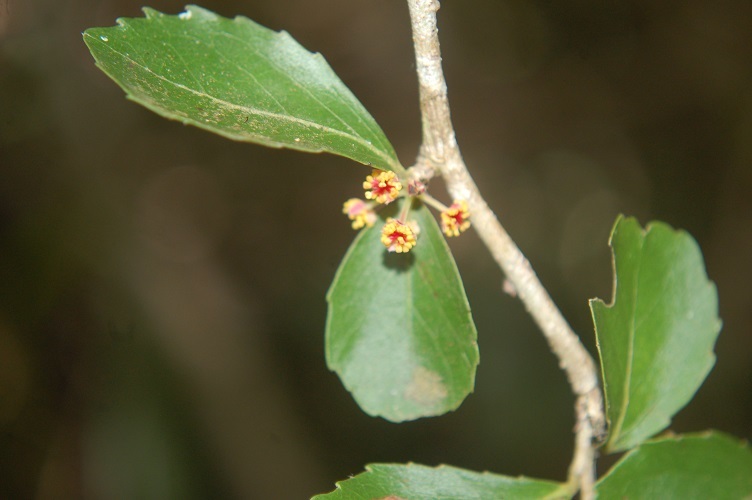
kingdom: Plantae
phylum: Tracheophyta
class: Magnoliopsida
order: Malpighiales
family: Salicaceae
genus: Xylosma
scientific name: Xylosma intermedia
